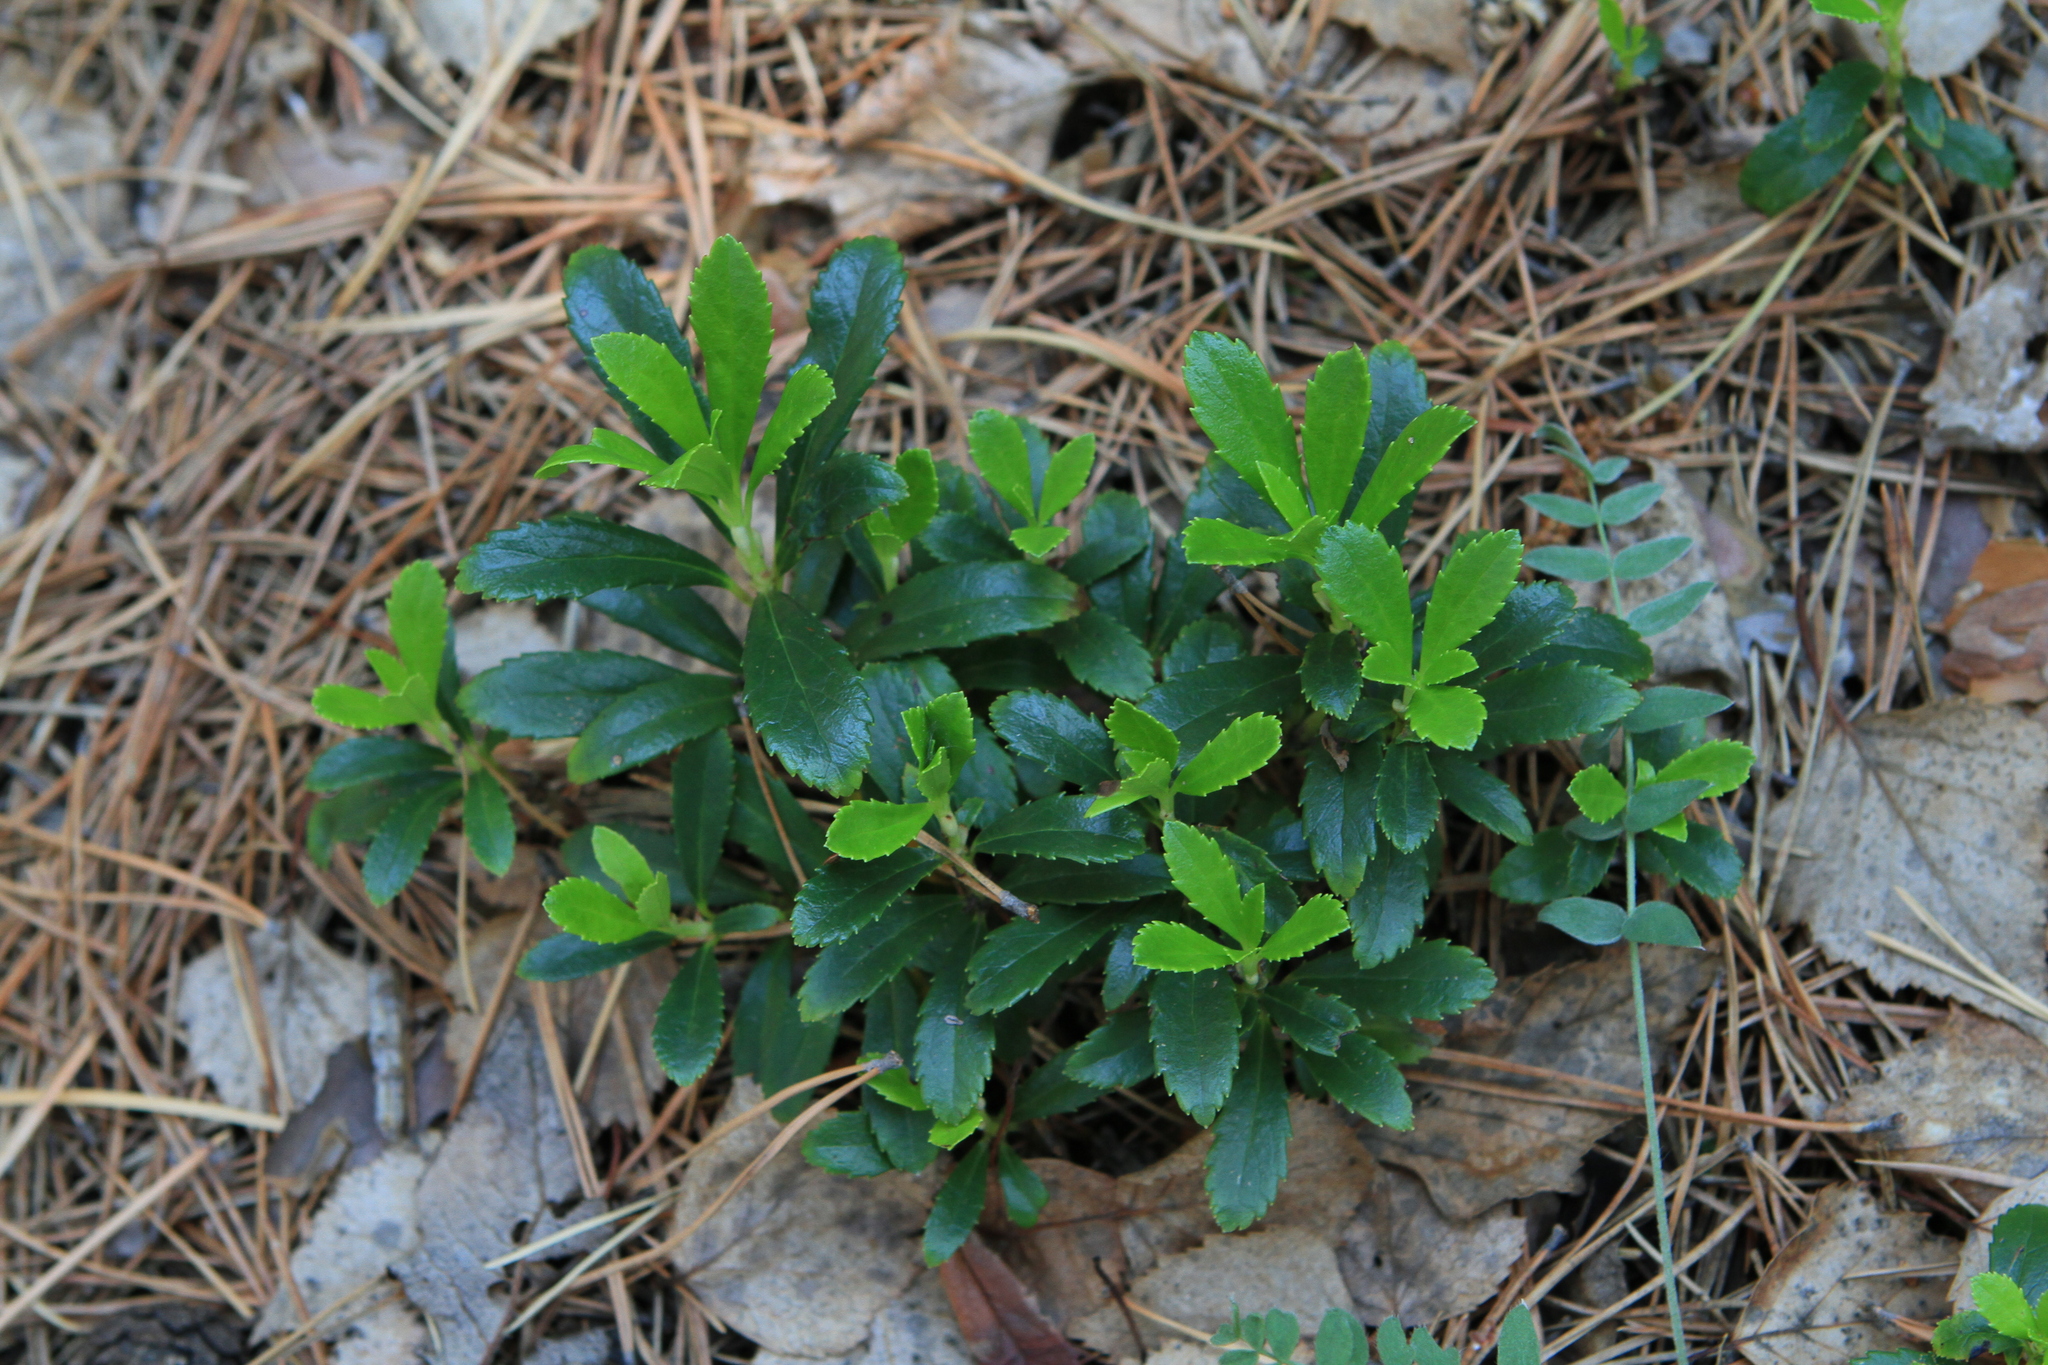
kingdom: Plantae
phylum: Tracheophyta
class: Magnoliopsida
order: Ericales
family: Ericaceae
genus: Chimaphila
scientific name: Chimaphila umbellata
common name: Pipsissewa
